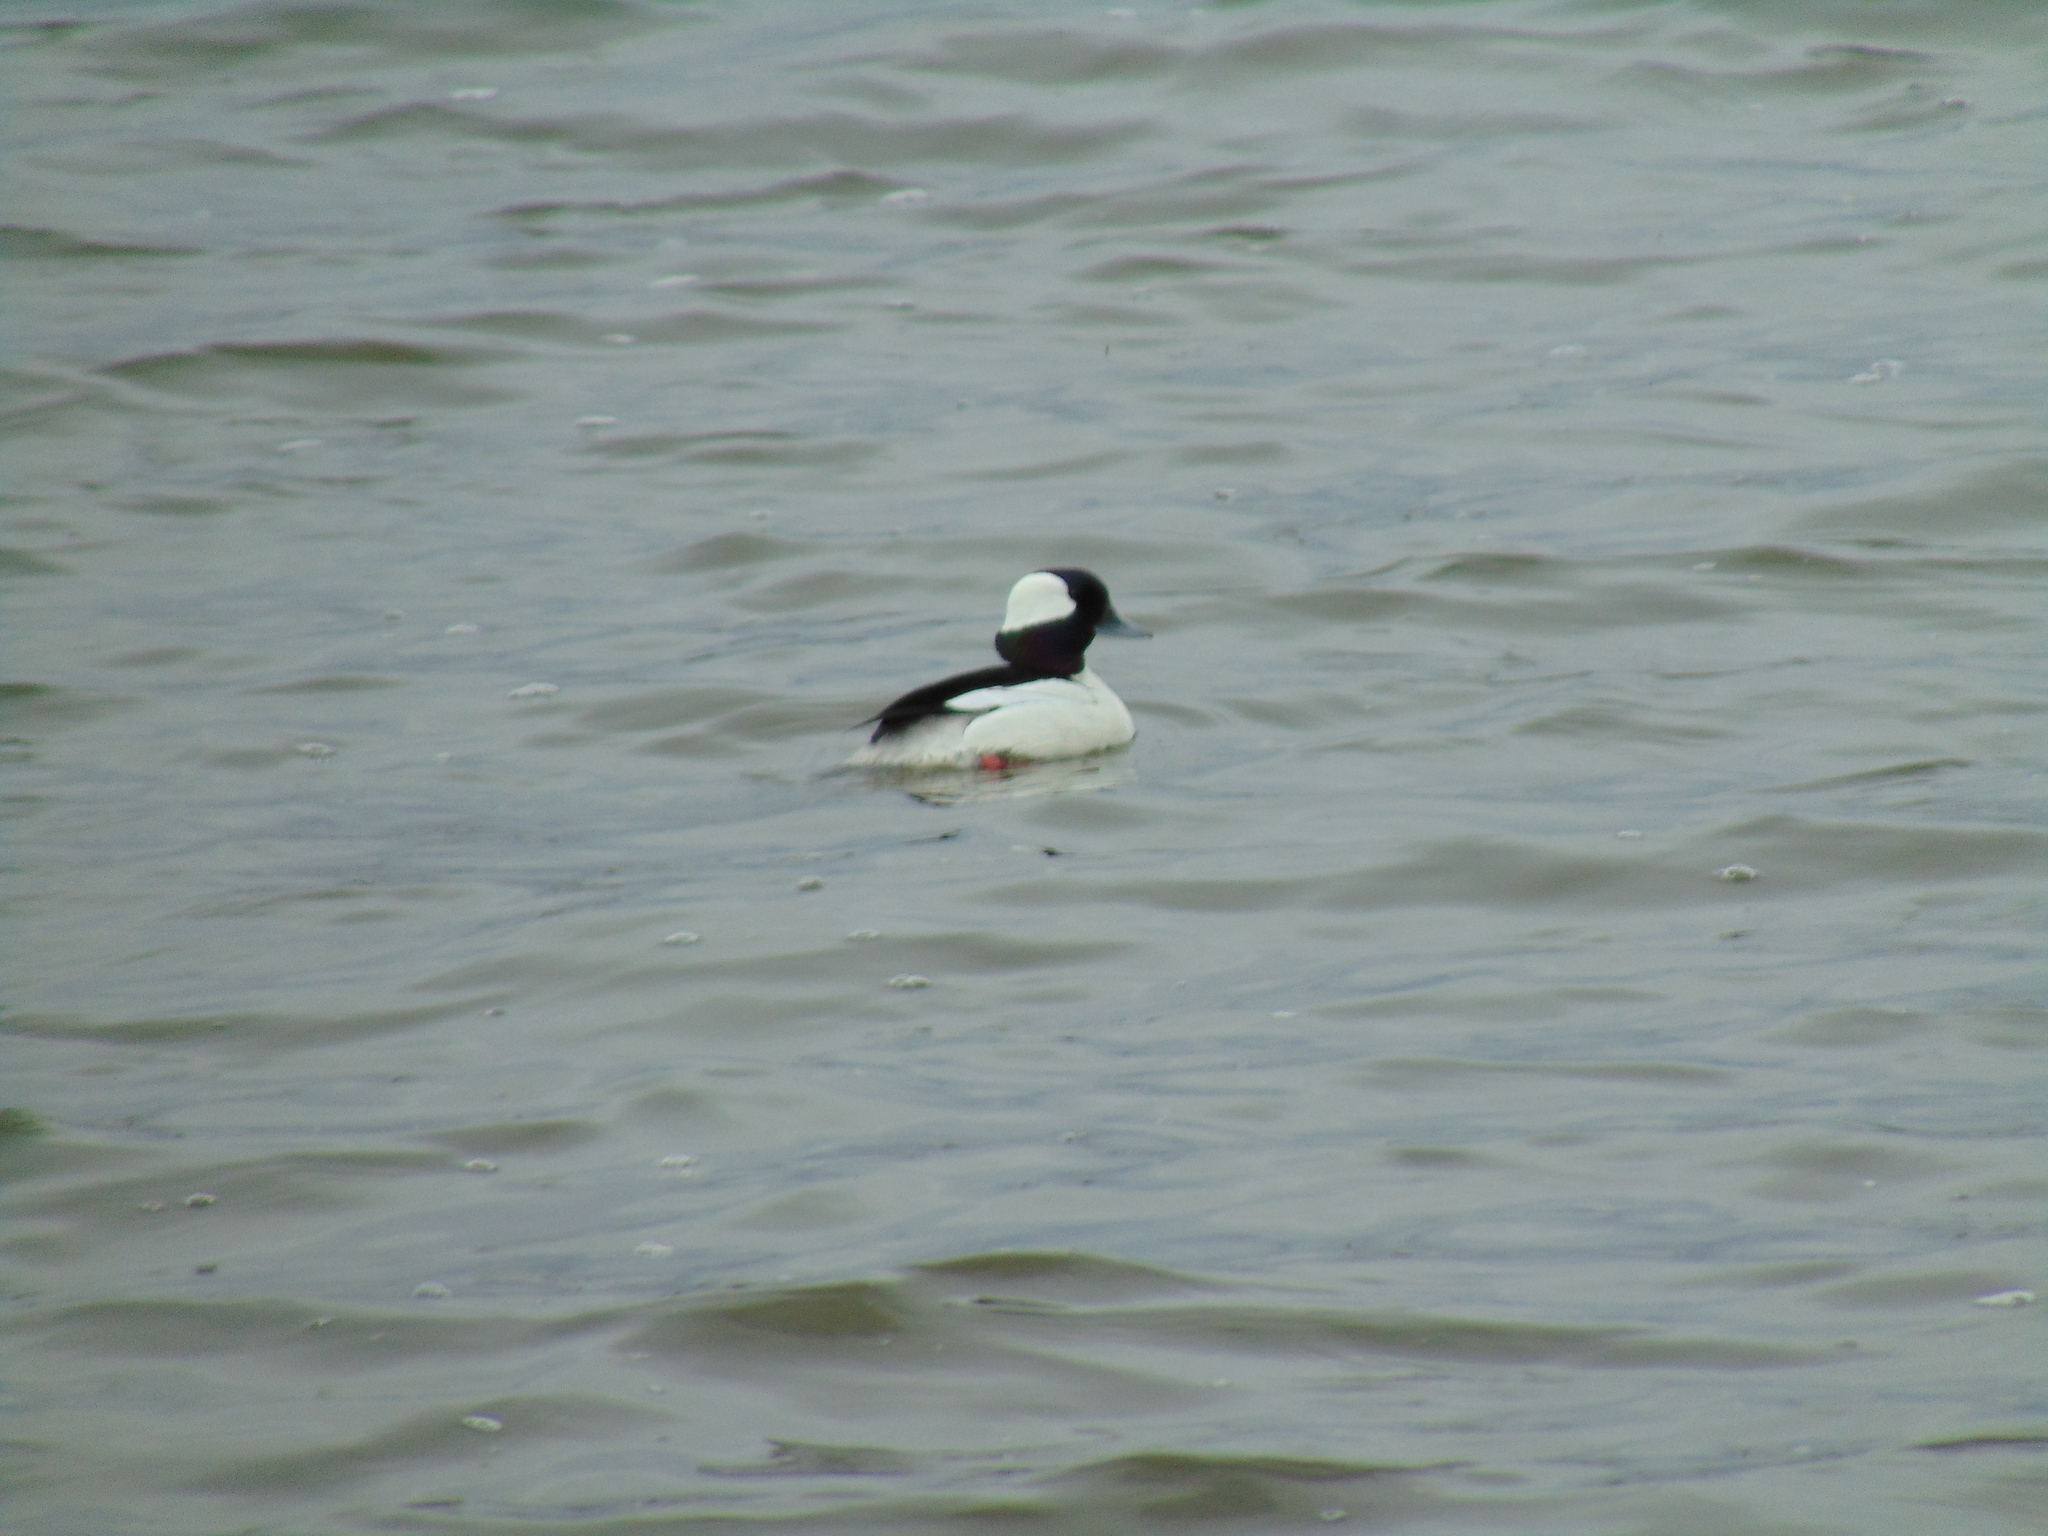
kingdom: Animalia
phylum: Chordata
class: Aves
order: Anseriformes
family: Anatidae
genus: Bucephala
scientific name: Bucephala albeola
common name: Bufflehead
